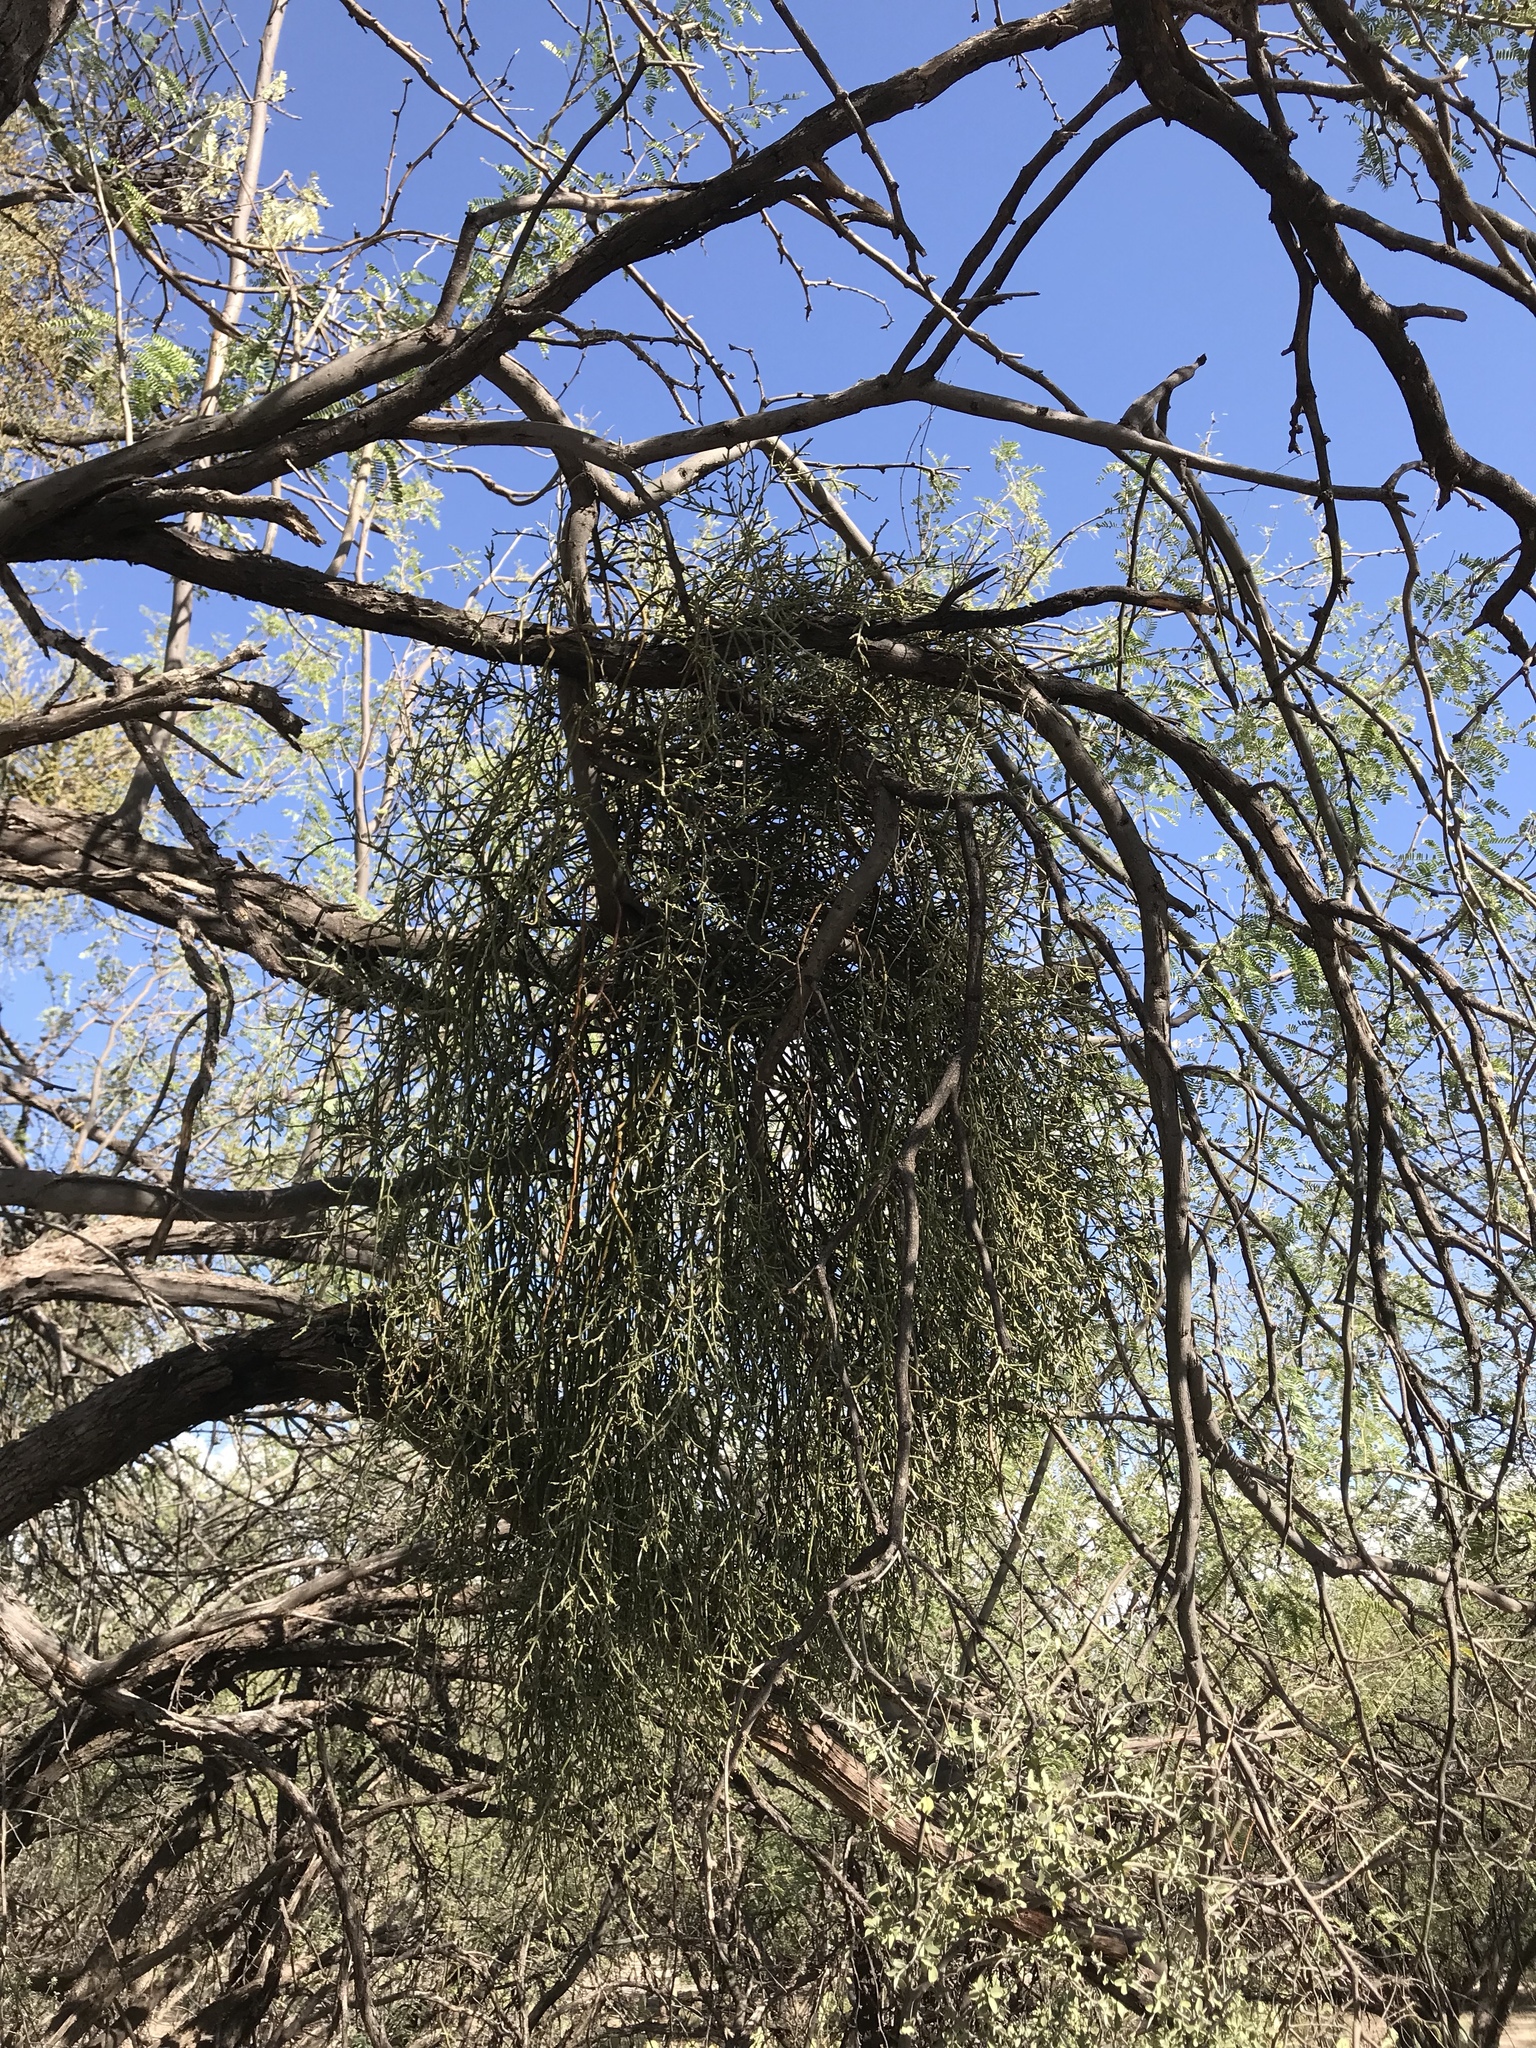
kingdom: Plantae
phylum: Tracheophyta
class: Magnoliopsida
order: Santalales
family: Viscaceae
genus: Phoradendron
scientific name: Phoradendron californicum
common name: Acacia mistletoe
